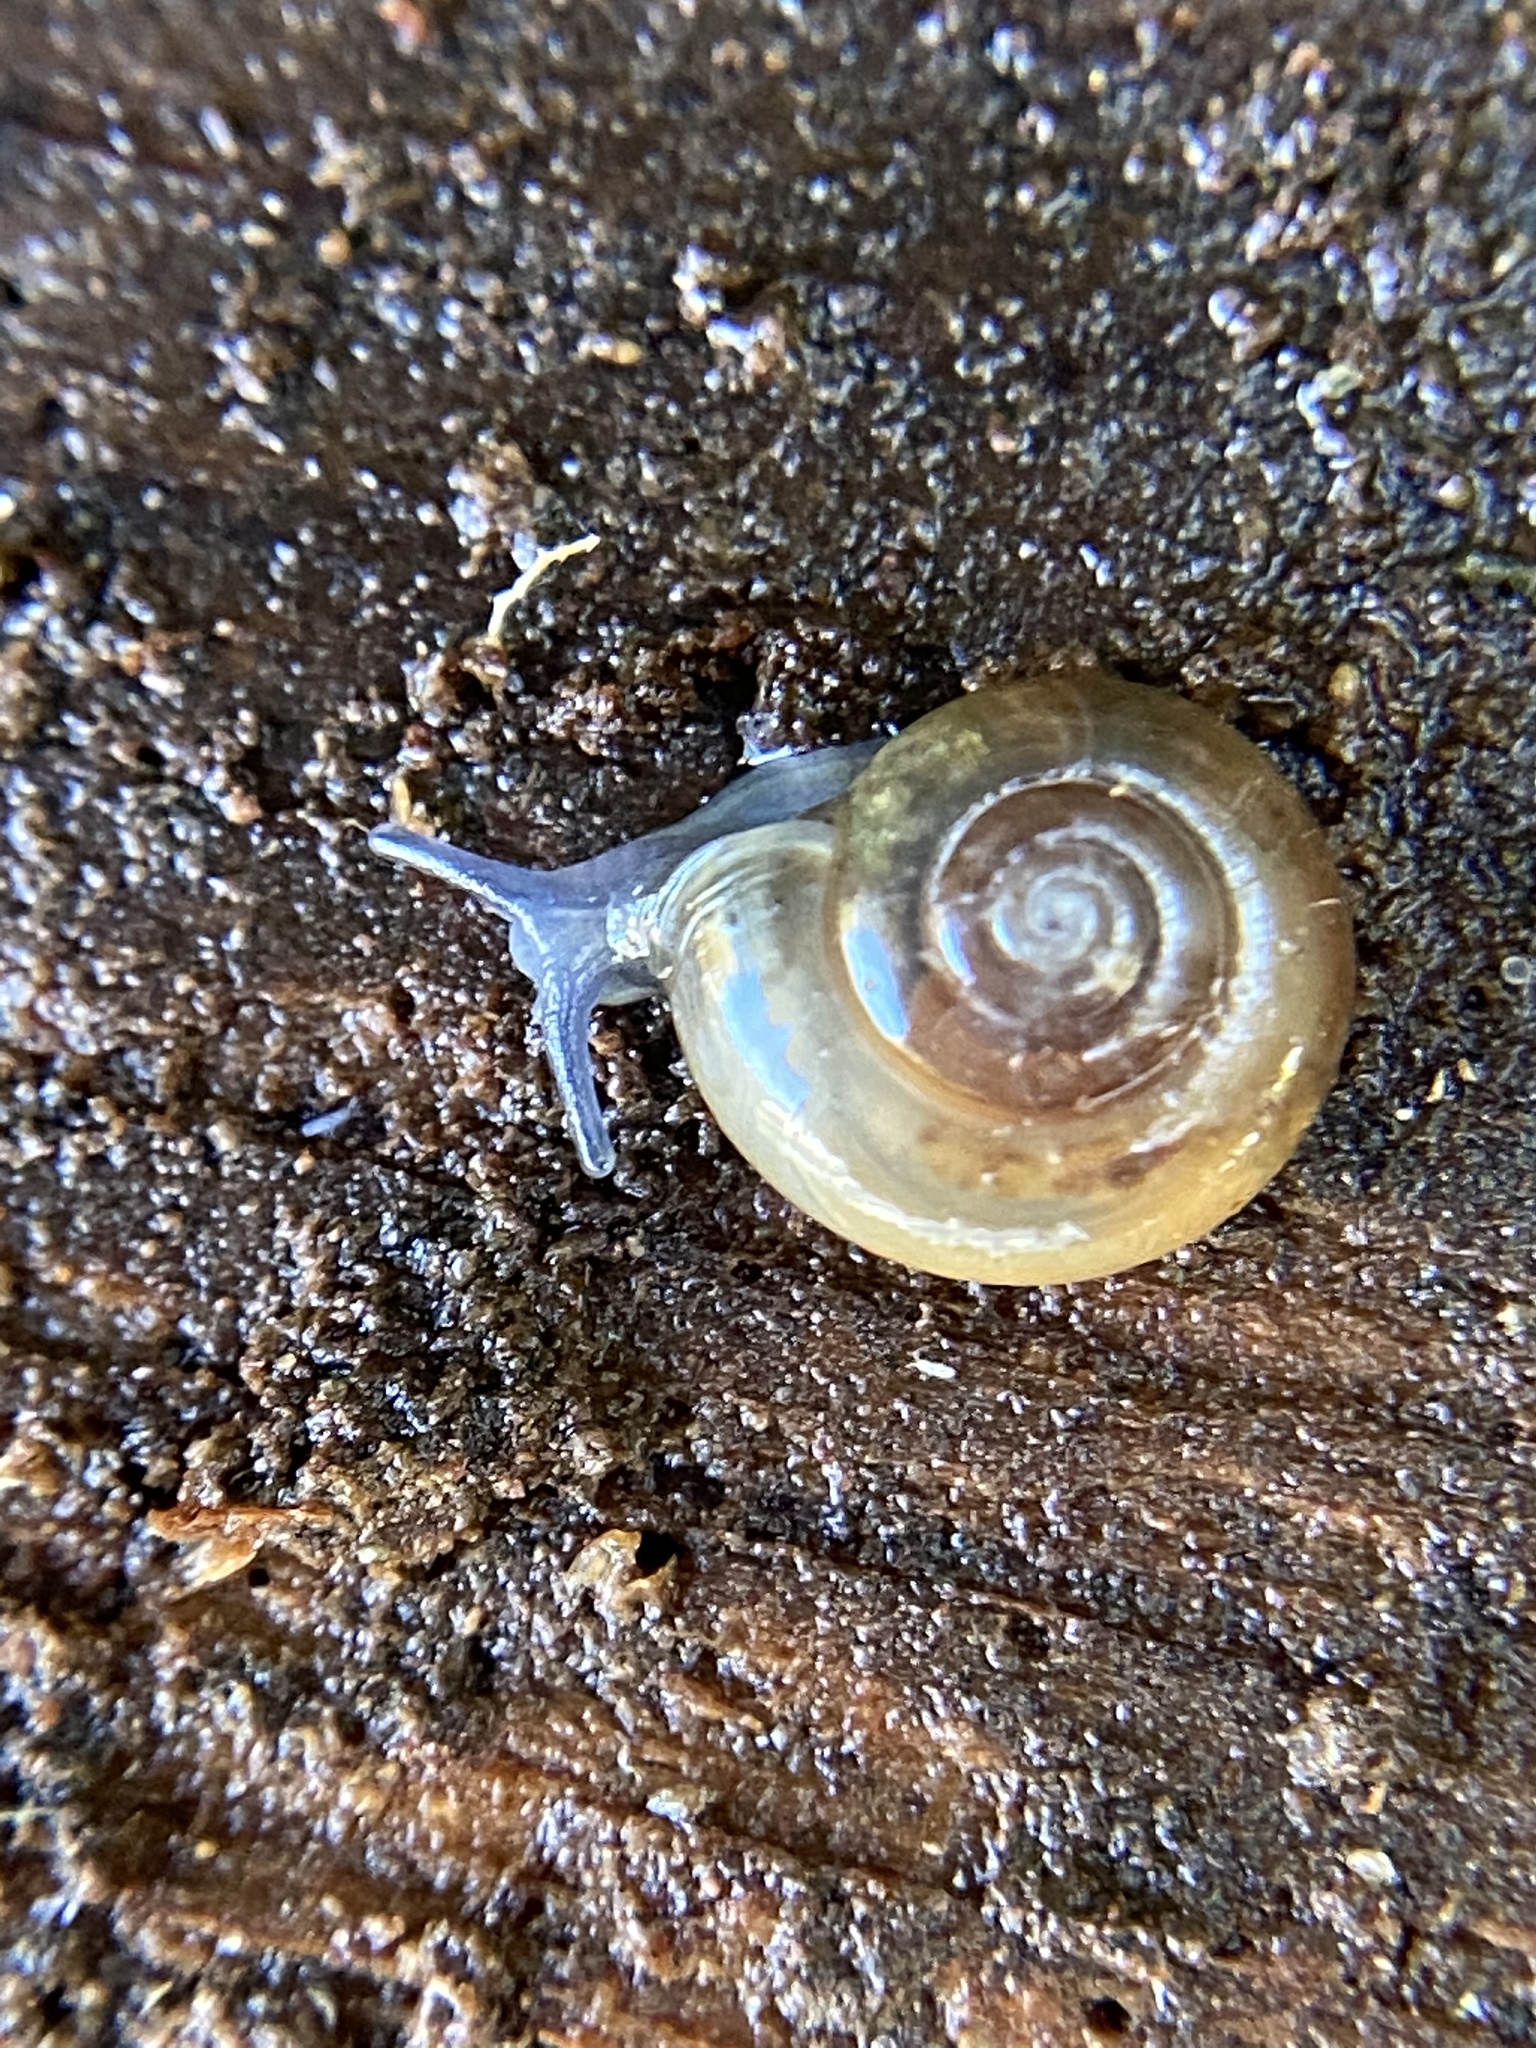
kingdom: Animalia
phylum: Mollusca
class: Gastropoda
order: Stylommatophora
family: Oxychilidae
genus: Oxychilus
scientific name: Oxychilus draparnaudi
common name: Draparnaud's glass snail
